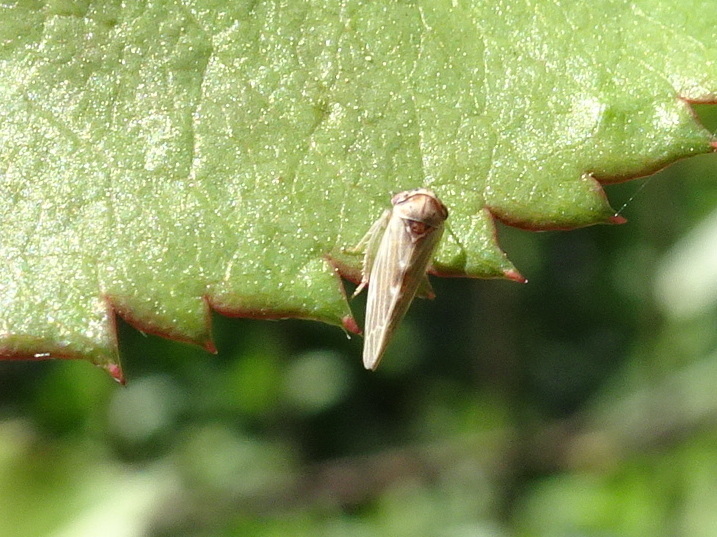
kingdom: Animalia
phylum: Arthropoda
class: Insecta
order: Hemiptera
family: Cicadellidae
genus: Agalliopsis
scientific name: Agalliopsis ancistra
